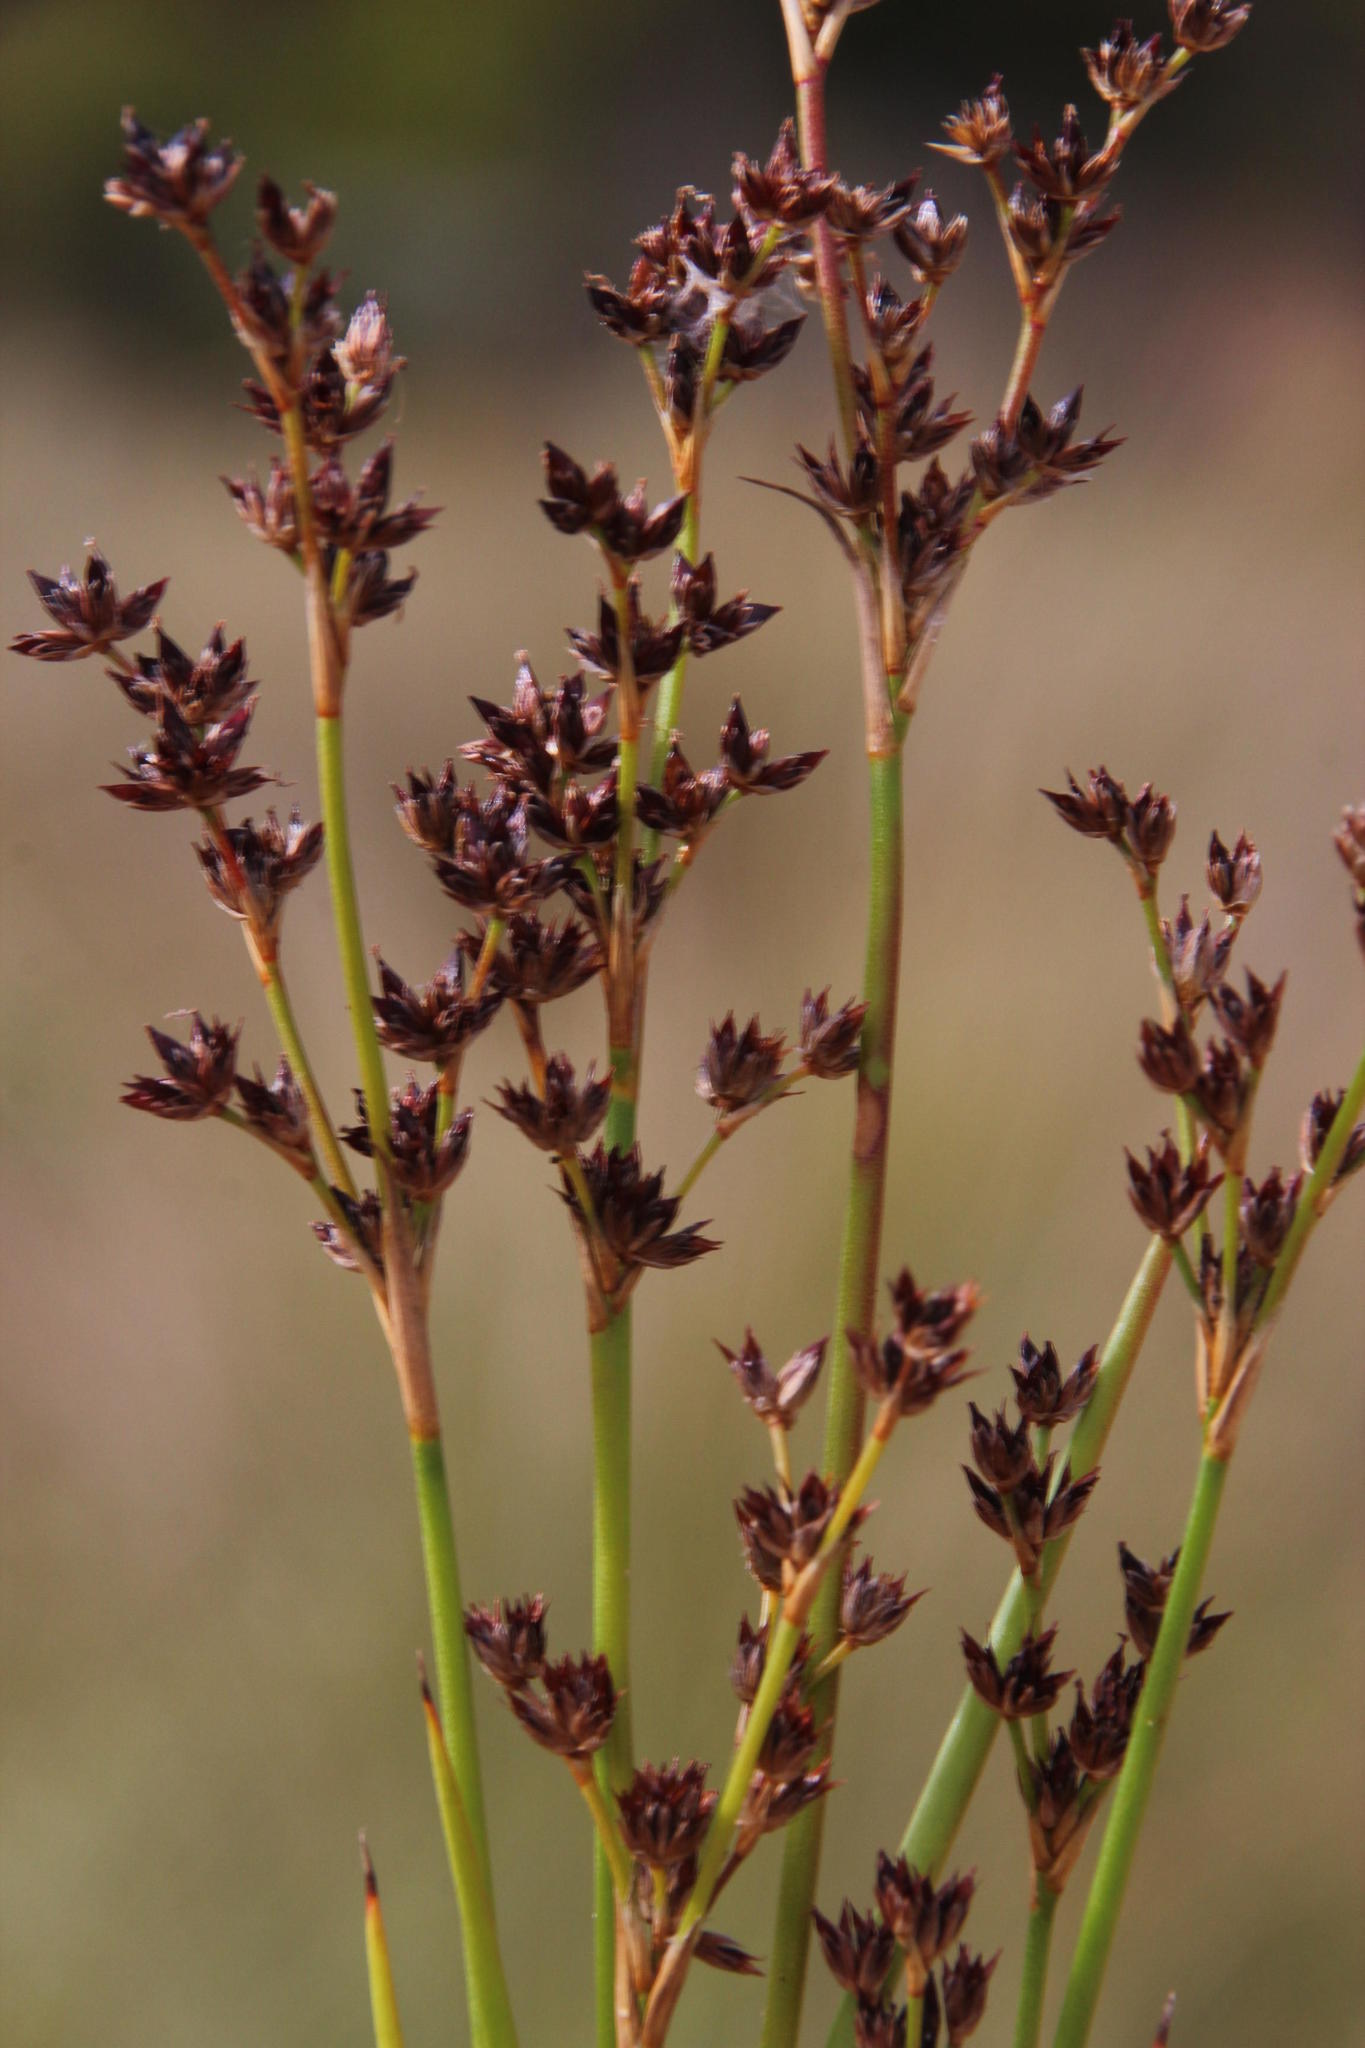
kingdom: Plantae
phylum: Tracheophyta
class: Liliopsida
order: Poales
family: Juncaceae
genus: Juncus
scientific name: Juncus exsertus
